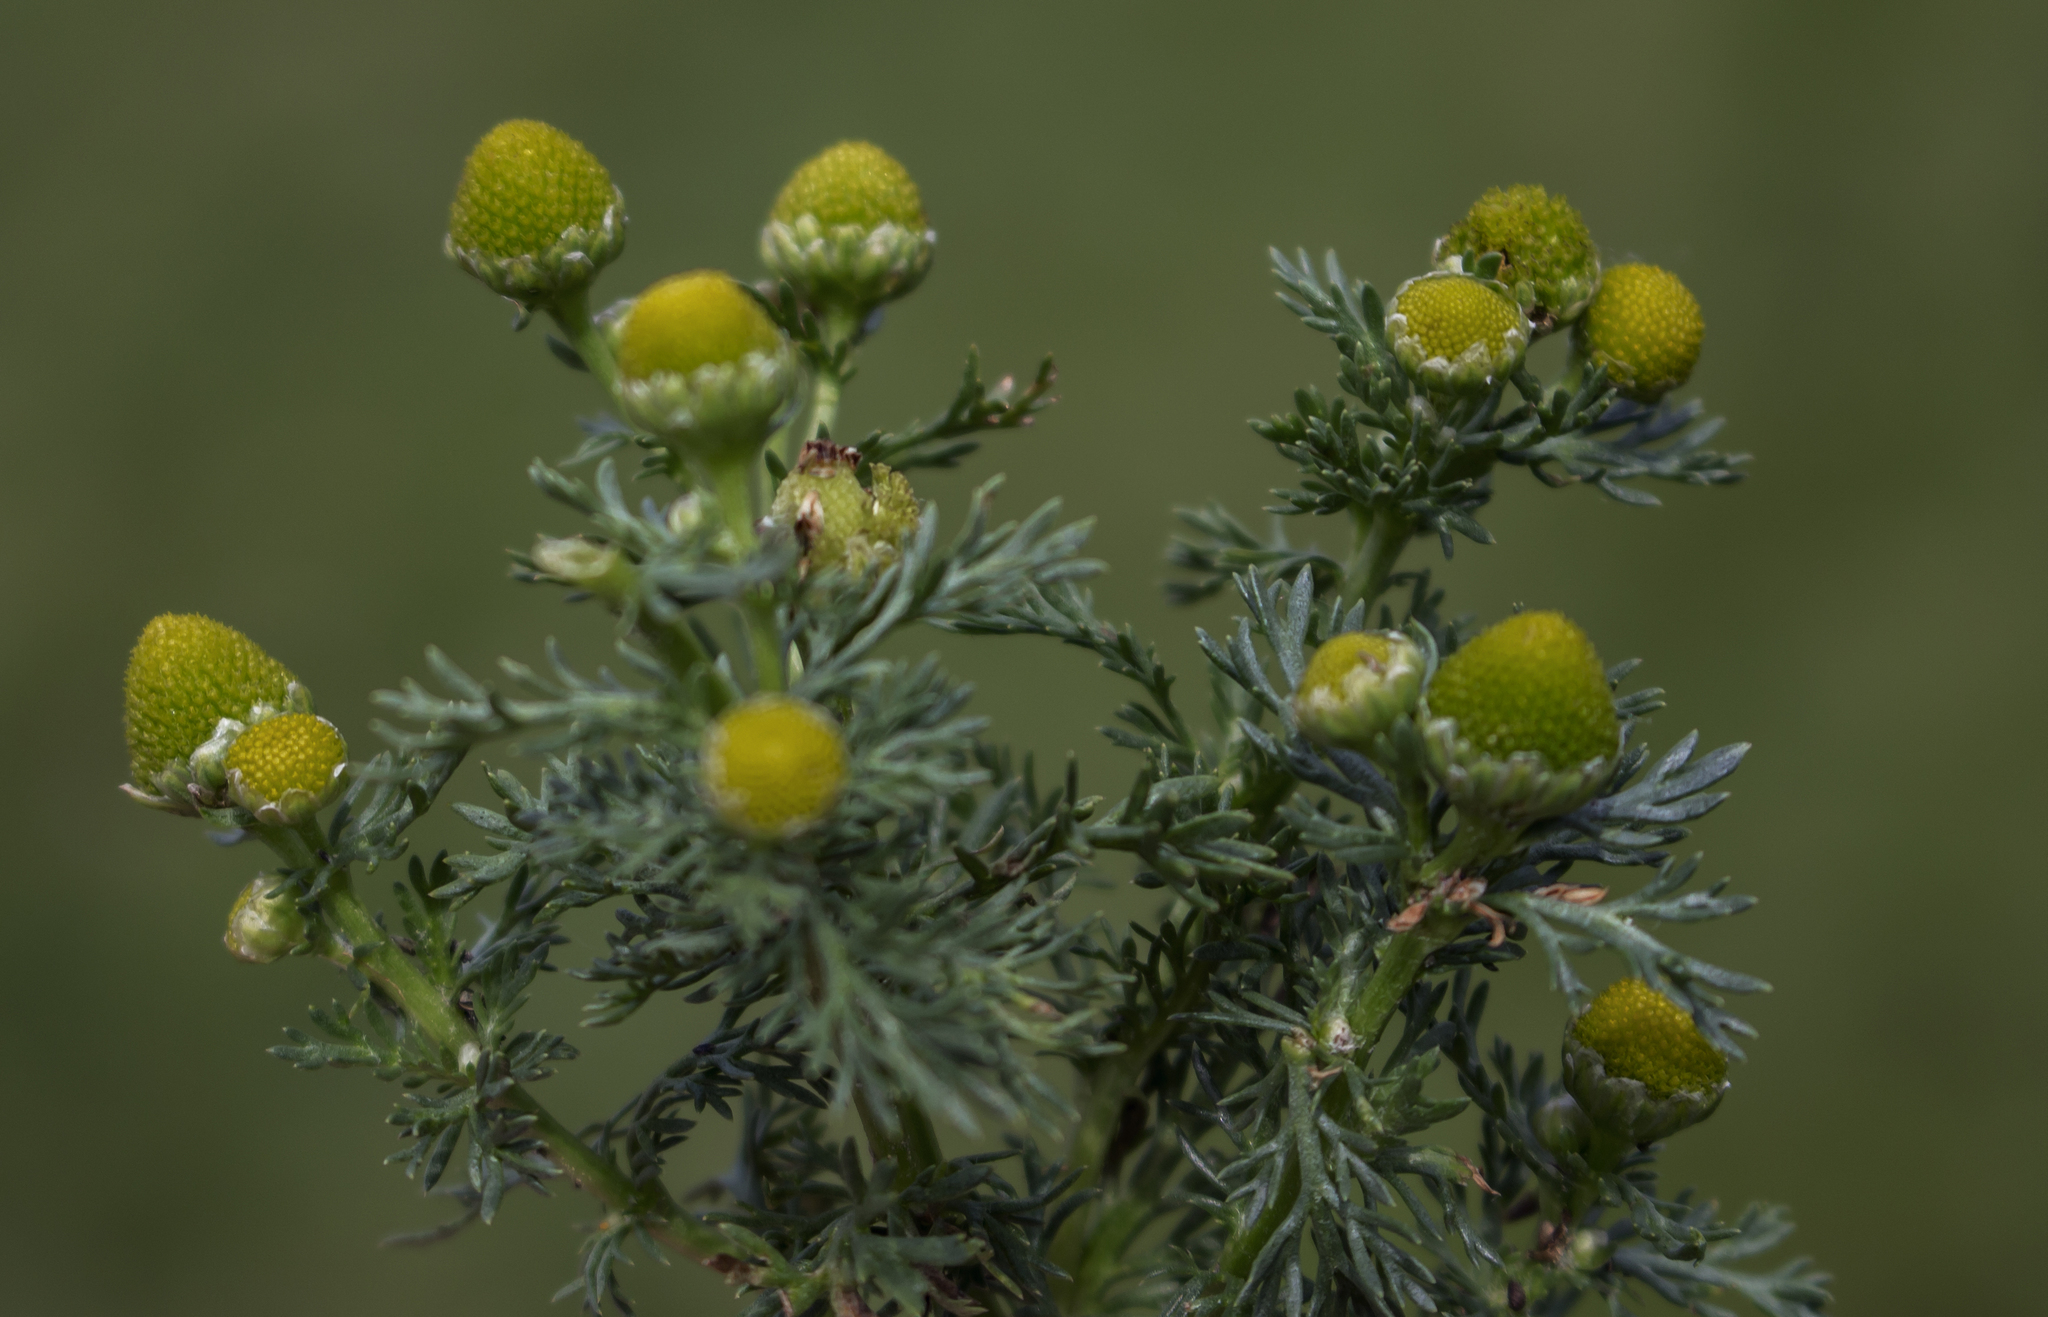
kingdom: Plantae
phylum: Tracheophyta
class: Magnoliopsida
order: Asterales
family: Asteraceae
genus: Matricaria
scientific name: Matricaria discoidea
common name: Disc mayweed
